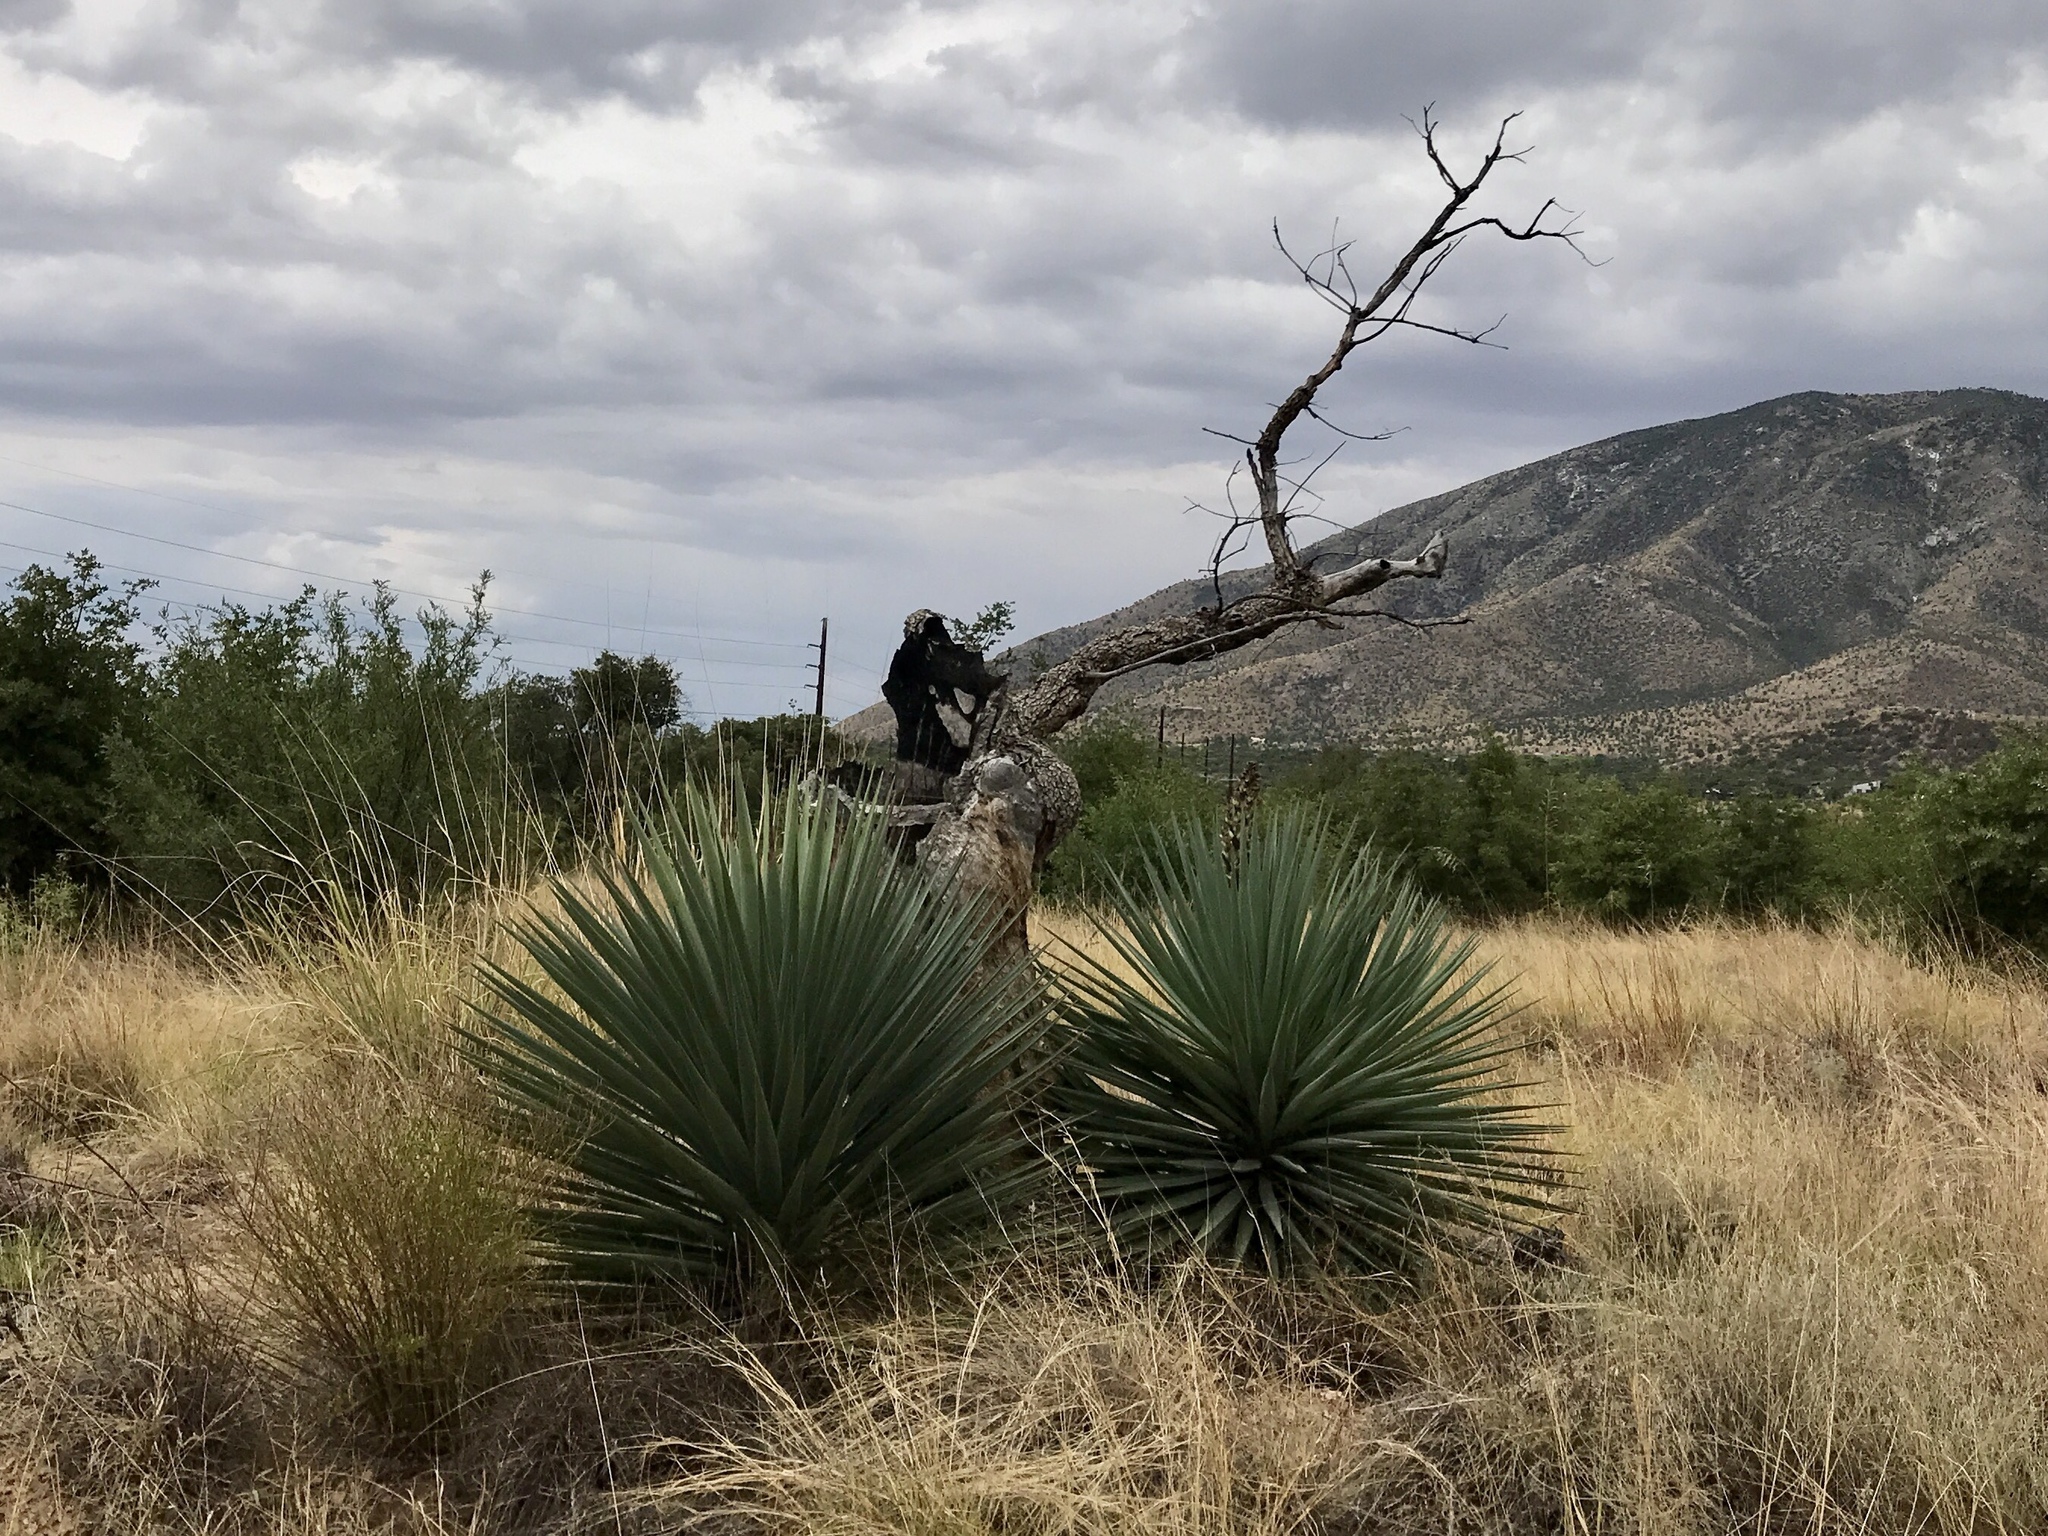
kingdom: Plantae
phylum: Tracheophyta
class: Liliopsida
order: Asparagales
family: Asparagaceae
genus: Yucca
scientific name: Yucca madrensis
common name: Hoary yucca
